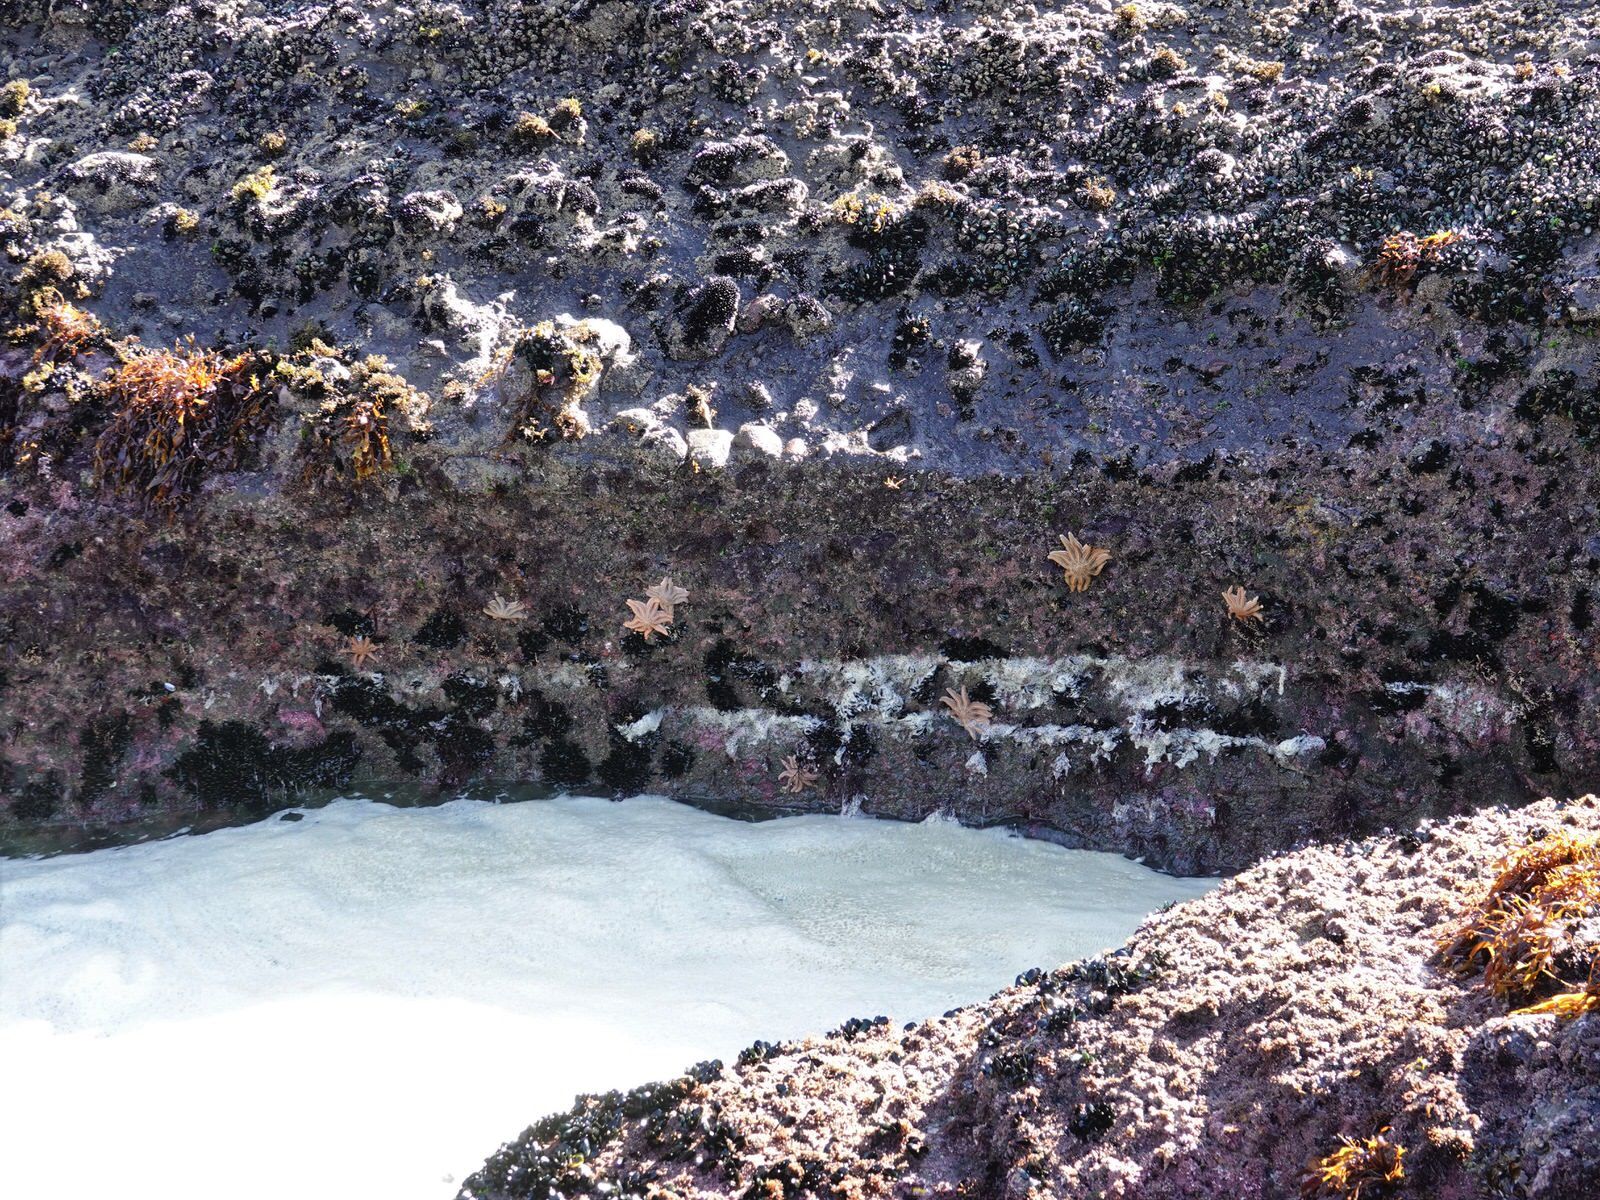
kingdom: Animalia
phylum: Echinodermata
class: Asteroidea
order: Forcipulatida
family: Stichasteridae
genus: Stichaster
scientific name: Stichaster australis
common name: Reef starfish
